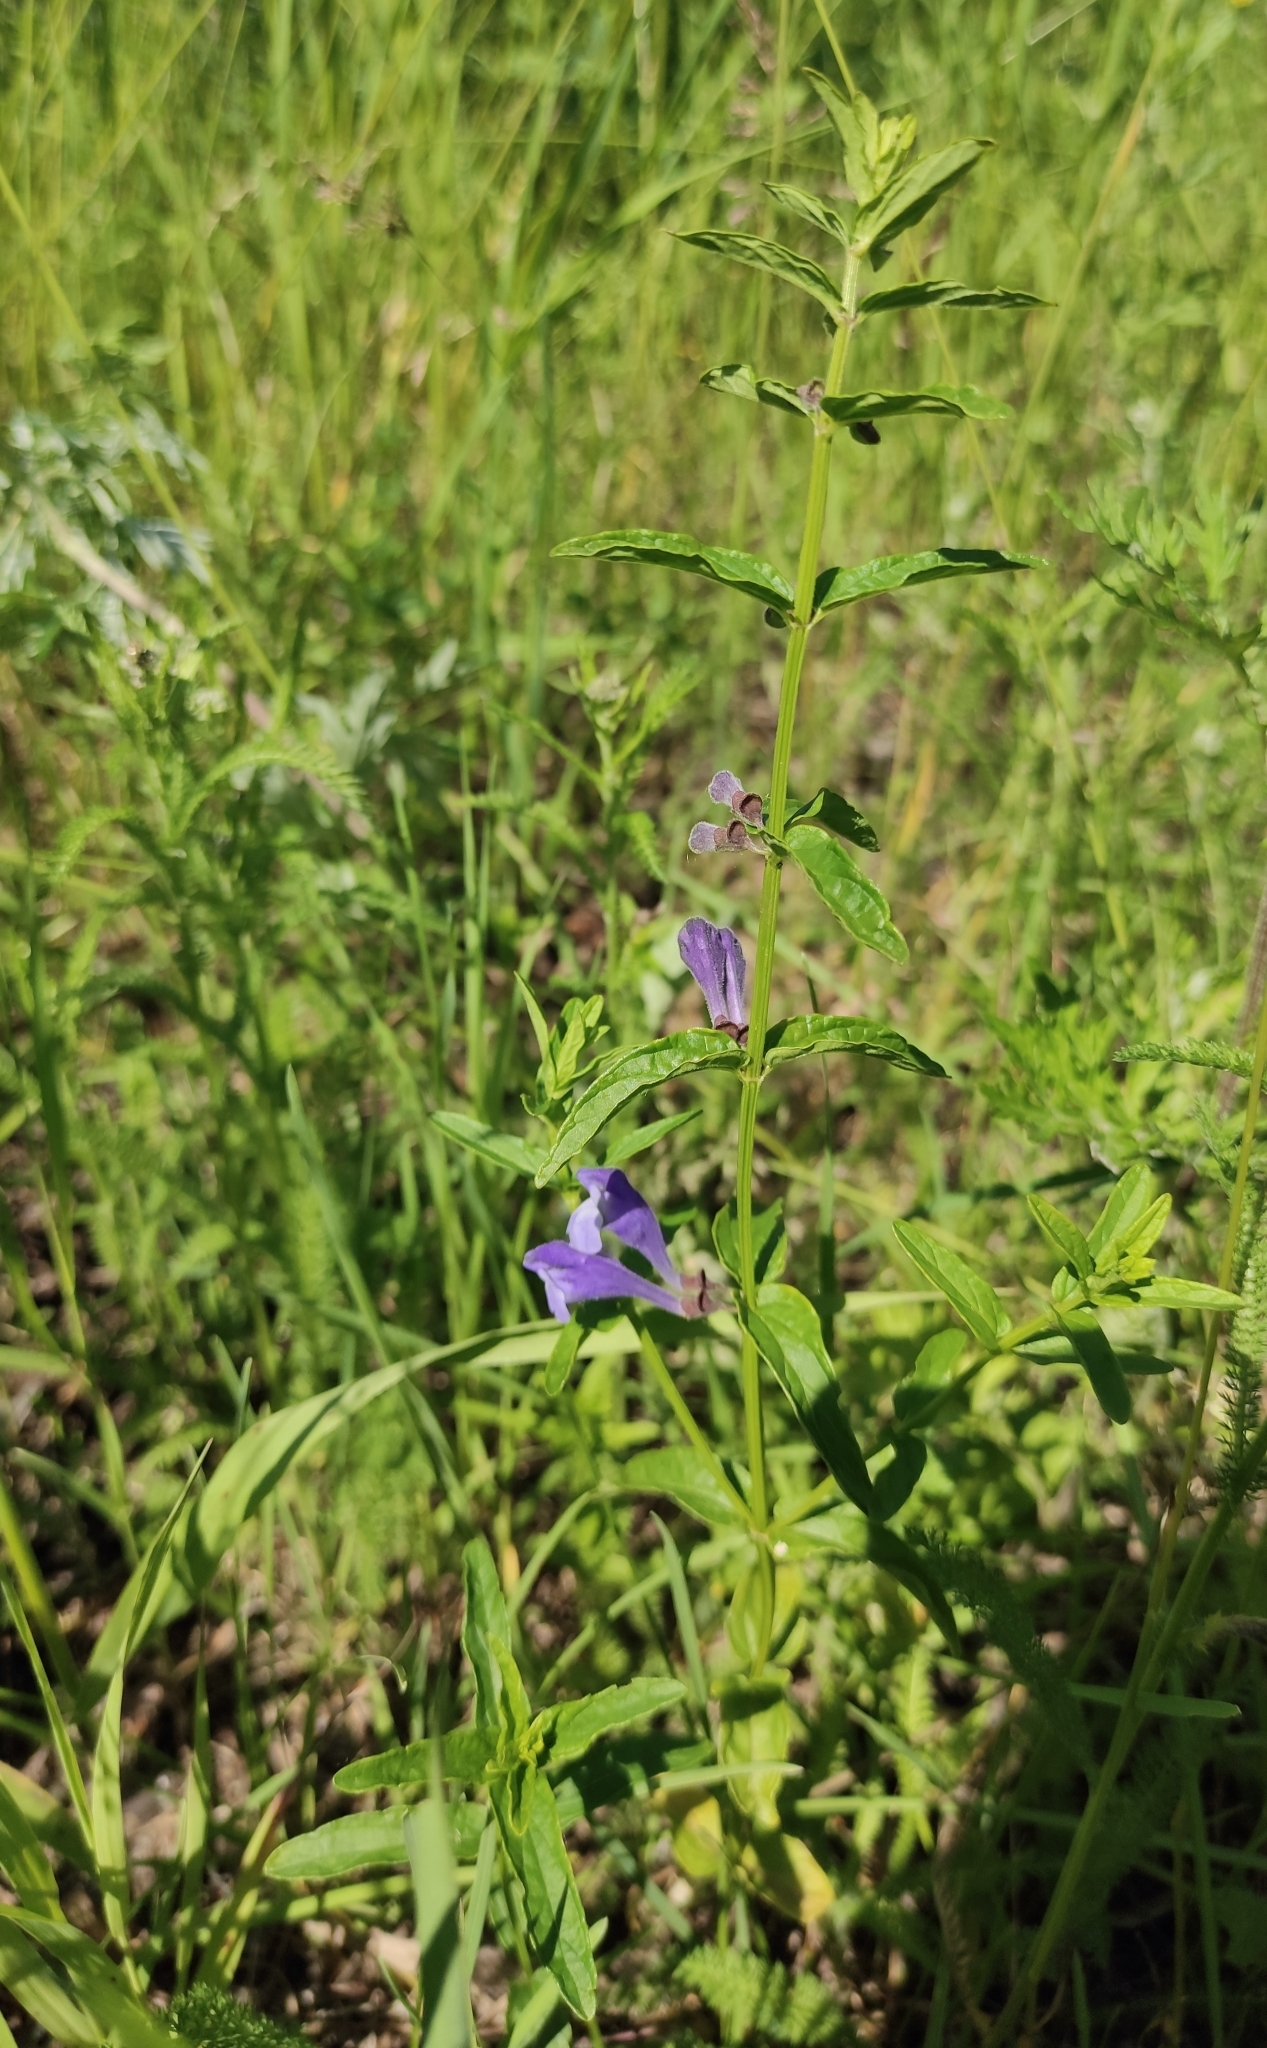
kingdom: Plantae
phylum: Tracheophyta
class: Magnoliopsida
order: Lamiales
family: Lamiaceae
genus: Scutellaria
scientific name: Scutellaria scordiifolia
